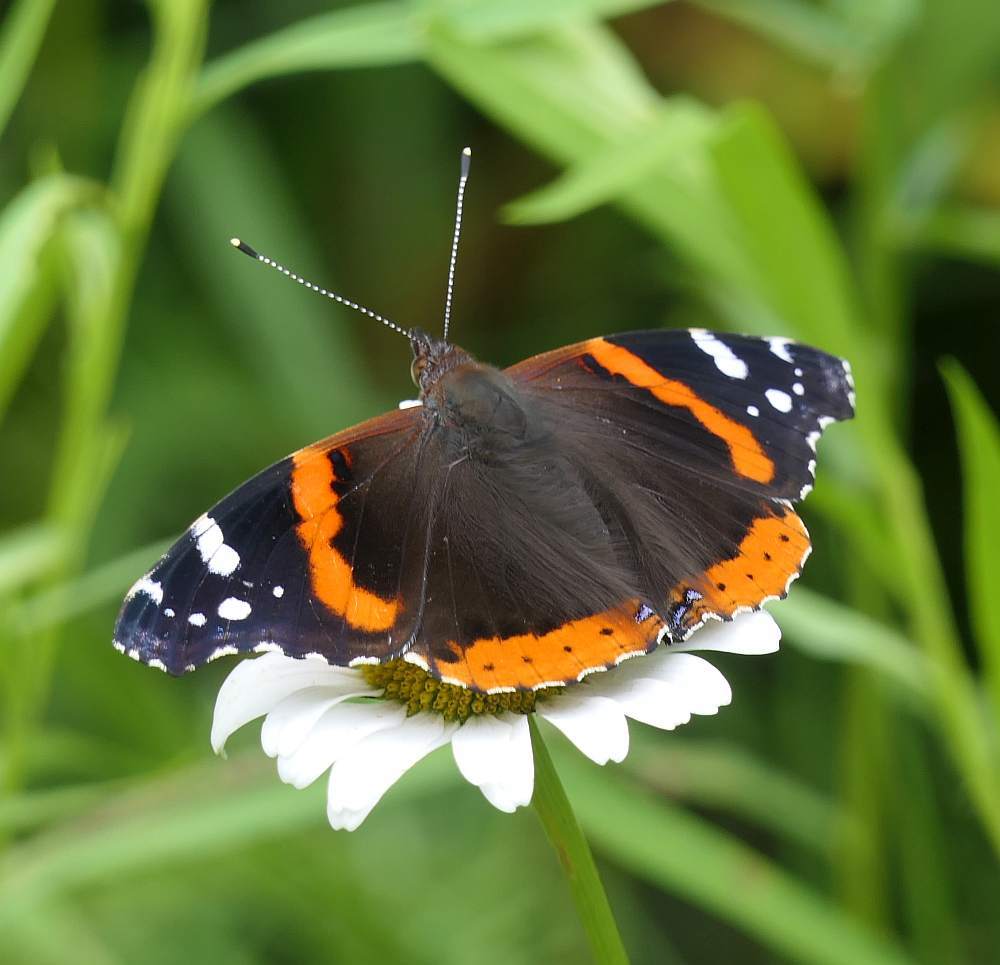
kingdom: Animalia
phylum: Arthropoda
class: Insecta
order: Lepidoptera
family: Nymphalidae
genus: Vanessa
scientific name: Vanessa atalanta
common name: Red admiral
